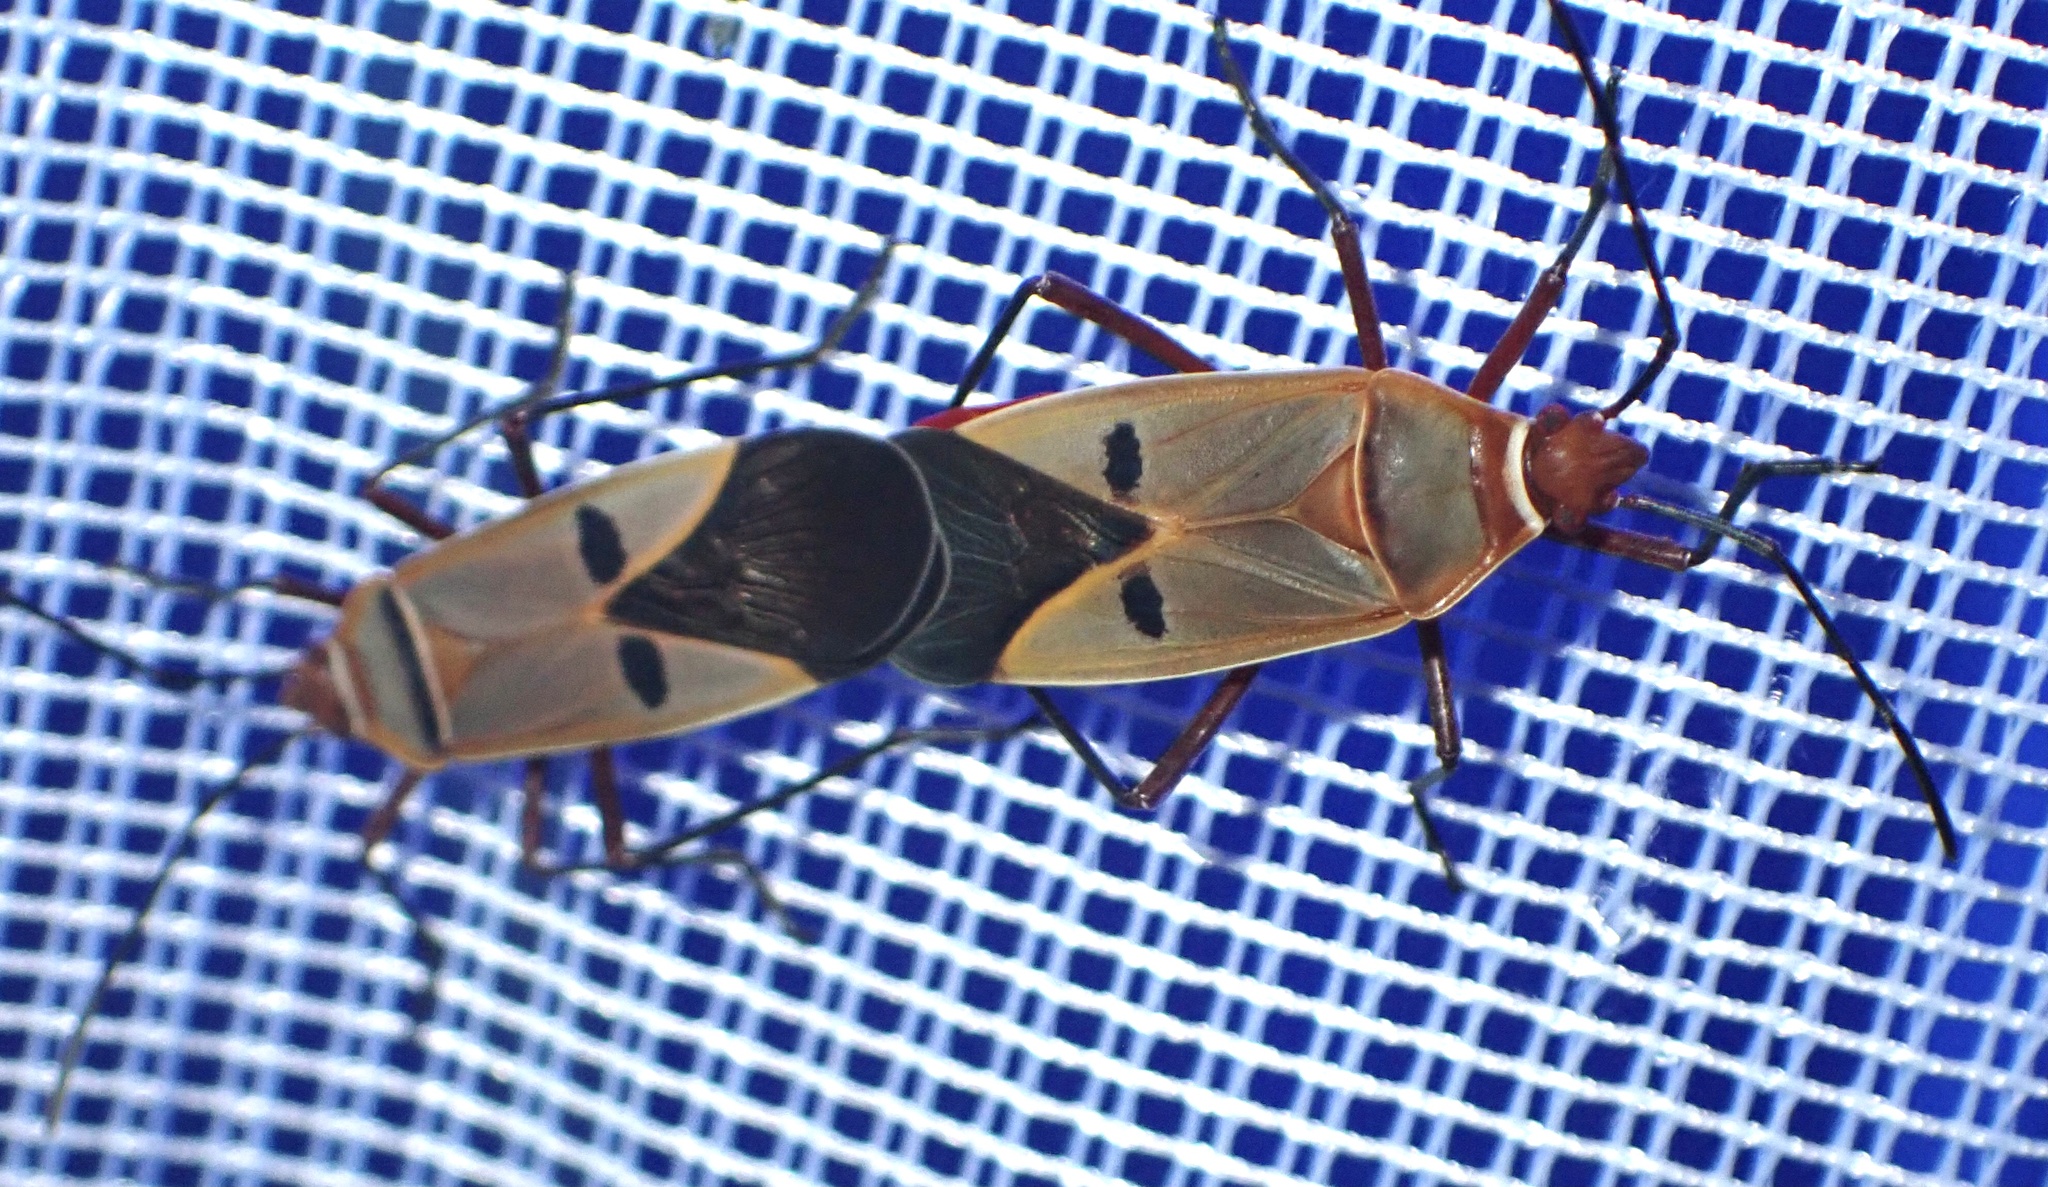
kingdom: Animalia
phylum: Arthropoda
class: Insecta
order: Hemiptera
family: Pyrrhocoridae
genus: Dysdercus
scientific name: Dysdercus superstitiosus
